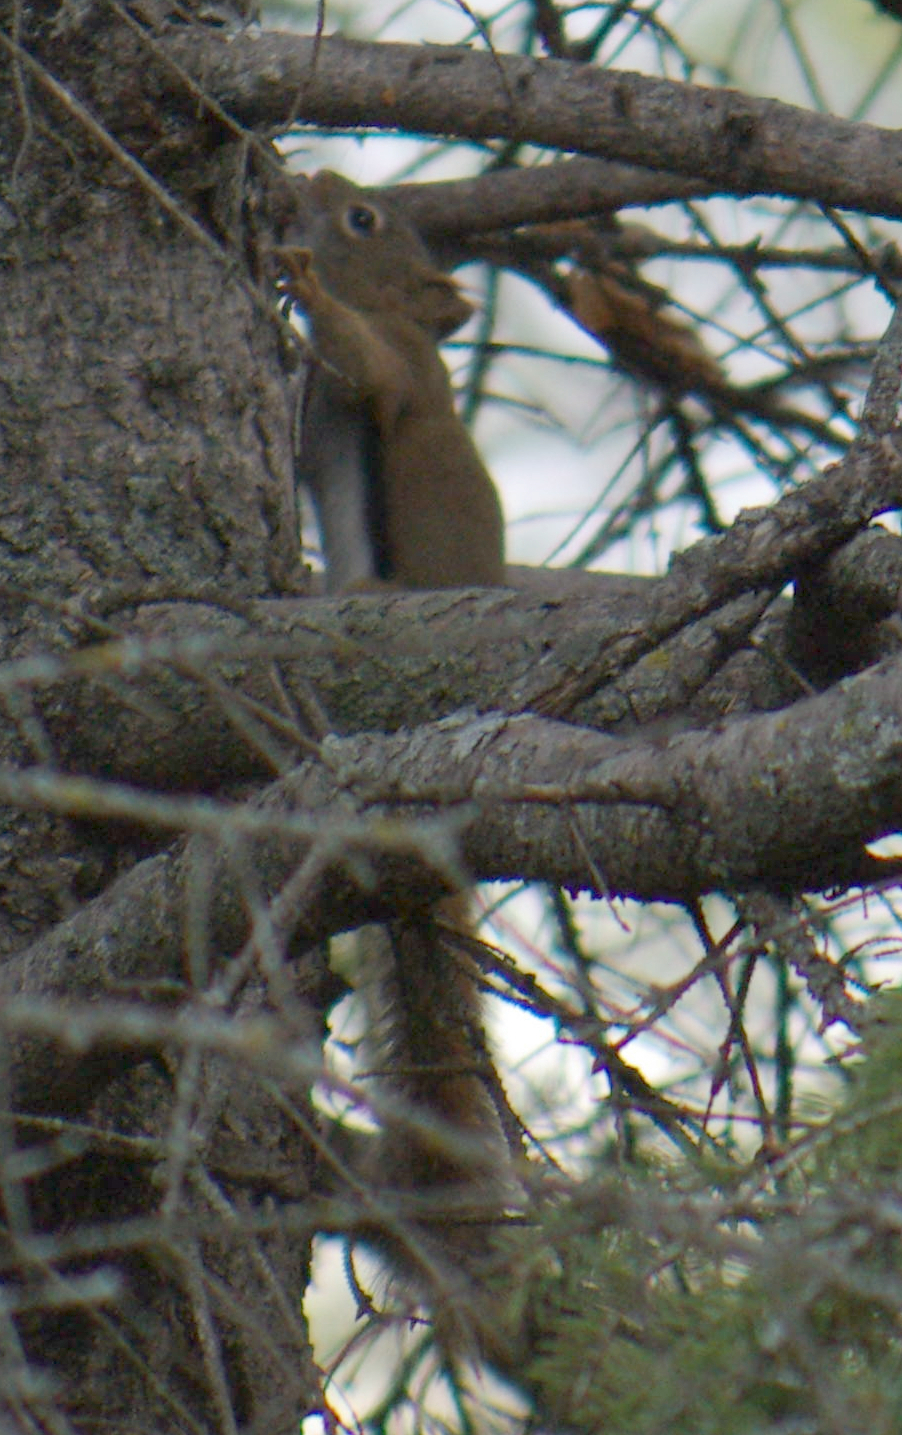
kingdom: Animalia
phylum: Chordata
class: Mammalia
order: Rodentia
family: Sciuridae
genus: Tamiasciurus
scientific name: Tamiasciurus hudsonicus
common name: Red squirrel
